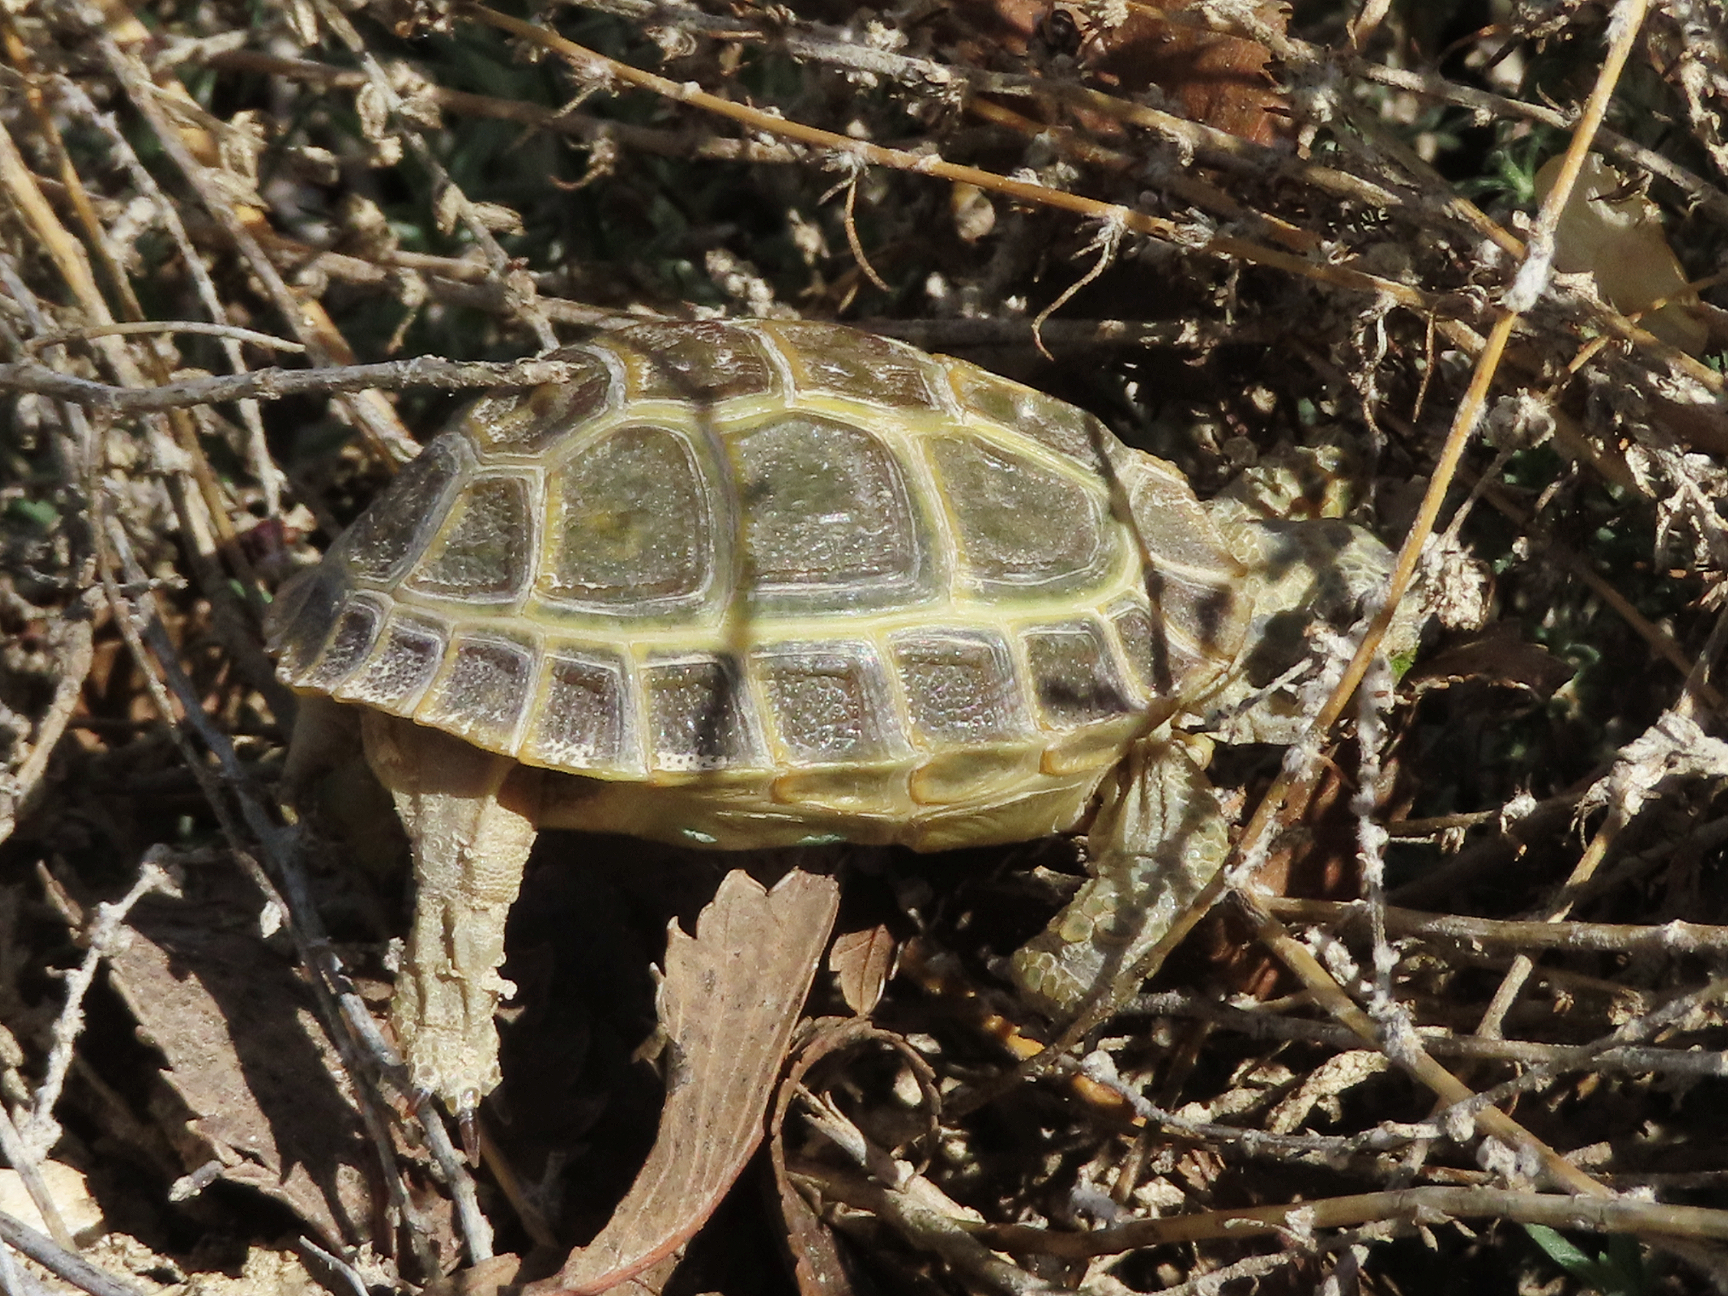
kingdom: Animalia
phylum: Chordata
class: Testudines
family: Testudinidae
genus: Testudo
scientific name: Testudo horsfieldii
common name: Central asia tortoise
